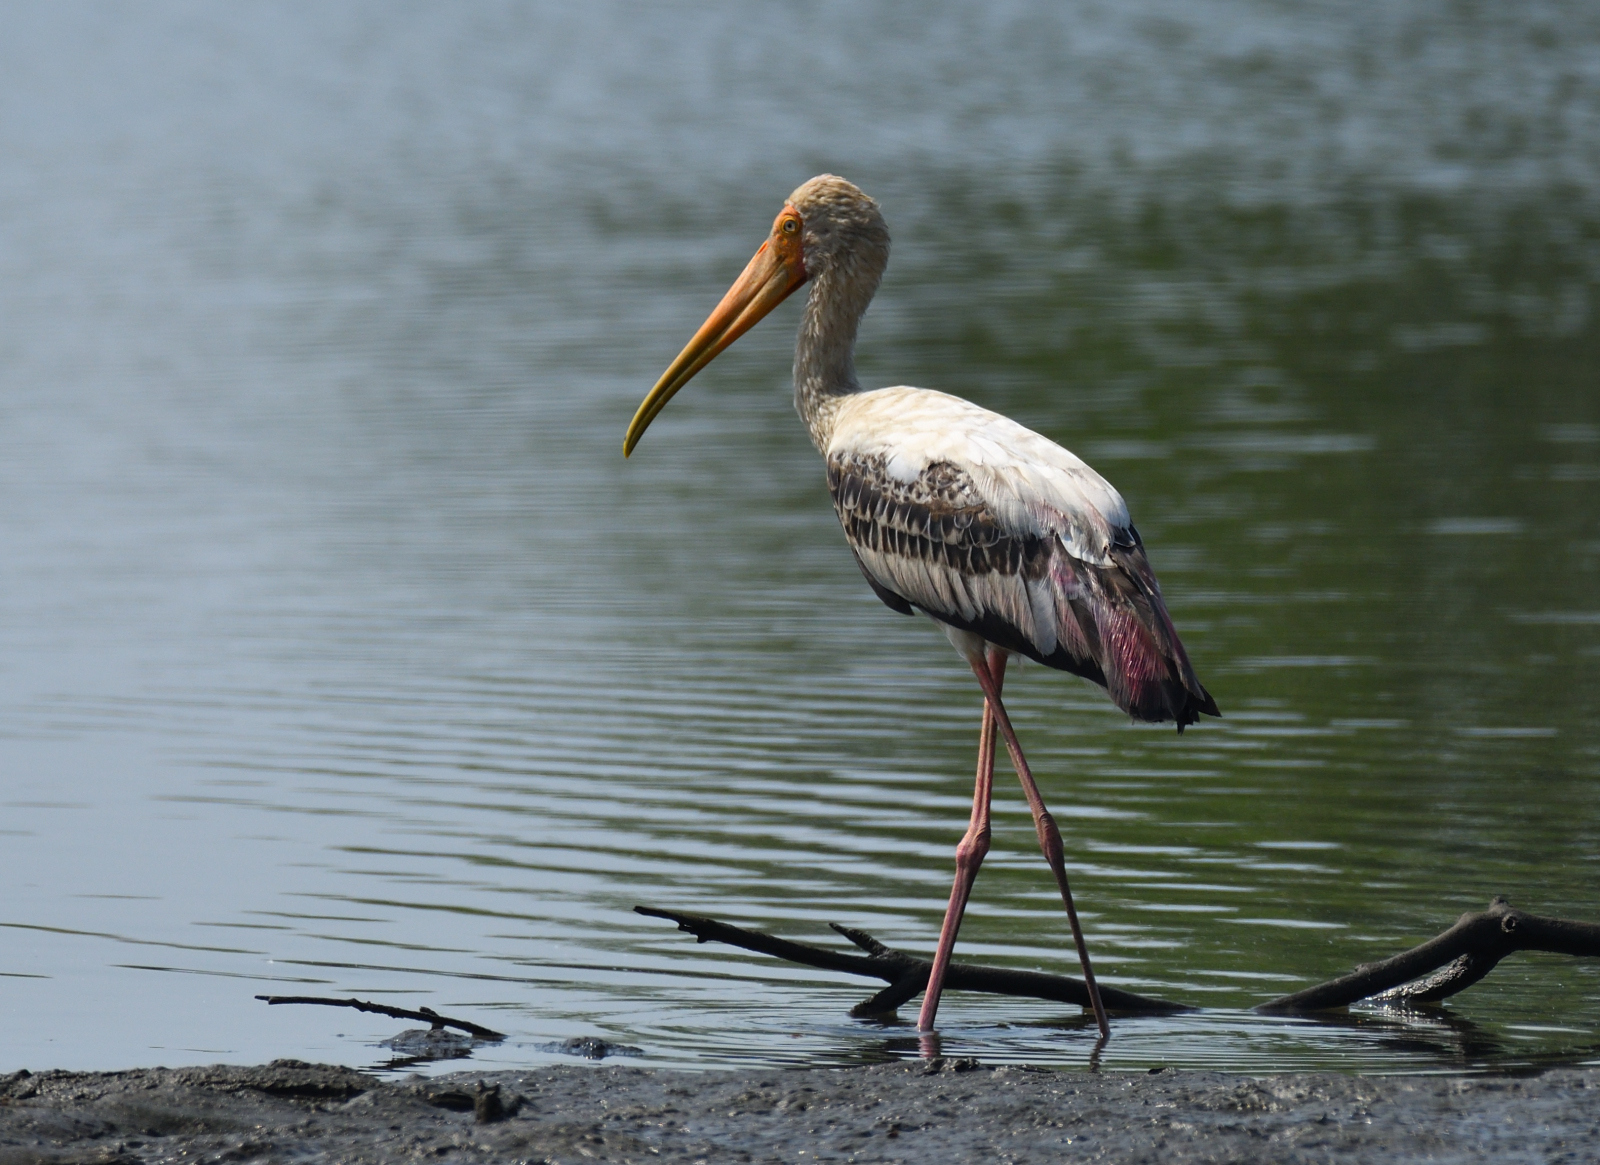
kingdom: Animalia
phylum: Chordata
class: Aves
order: Ciconiiformes
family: Ciconiidae
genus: Mycteria
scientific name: Mycteria leucocephala
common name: Painted stork
